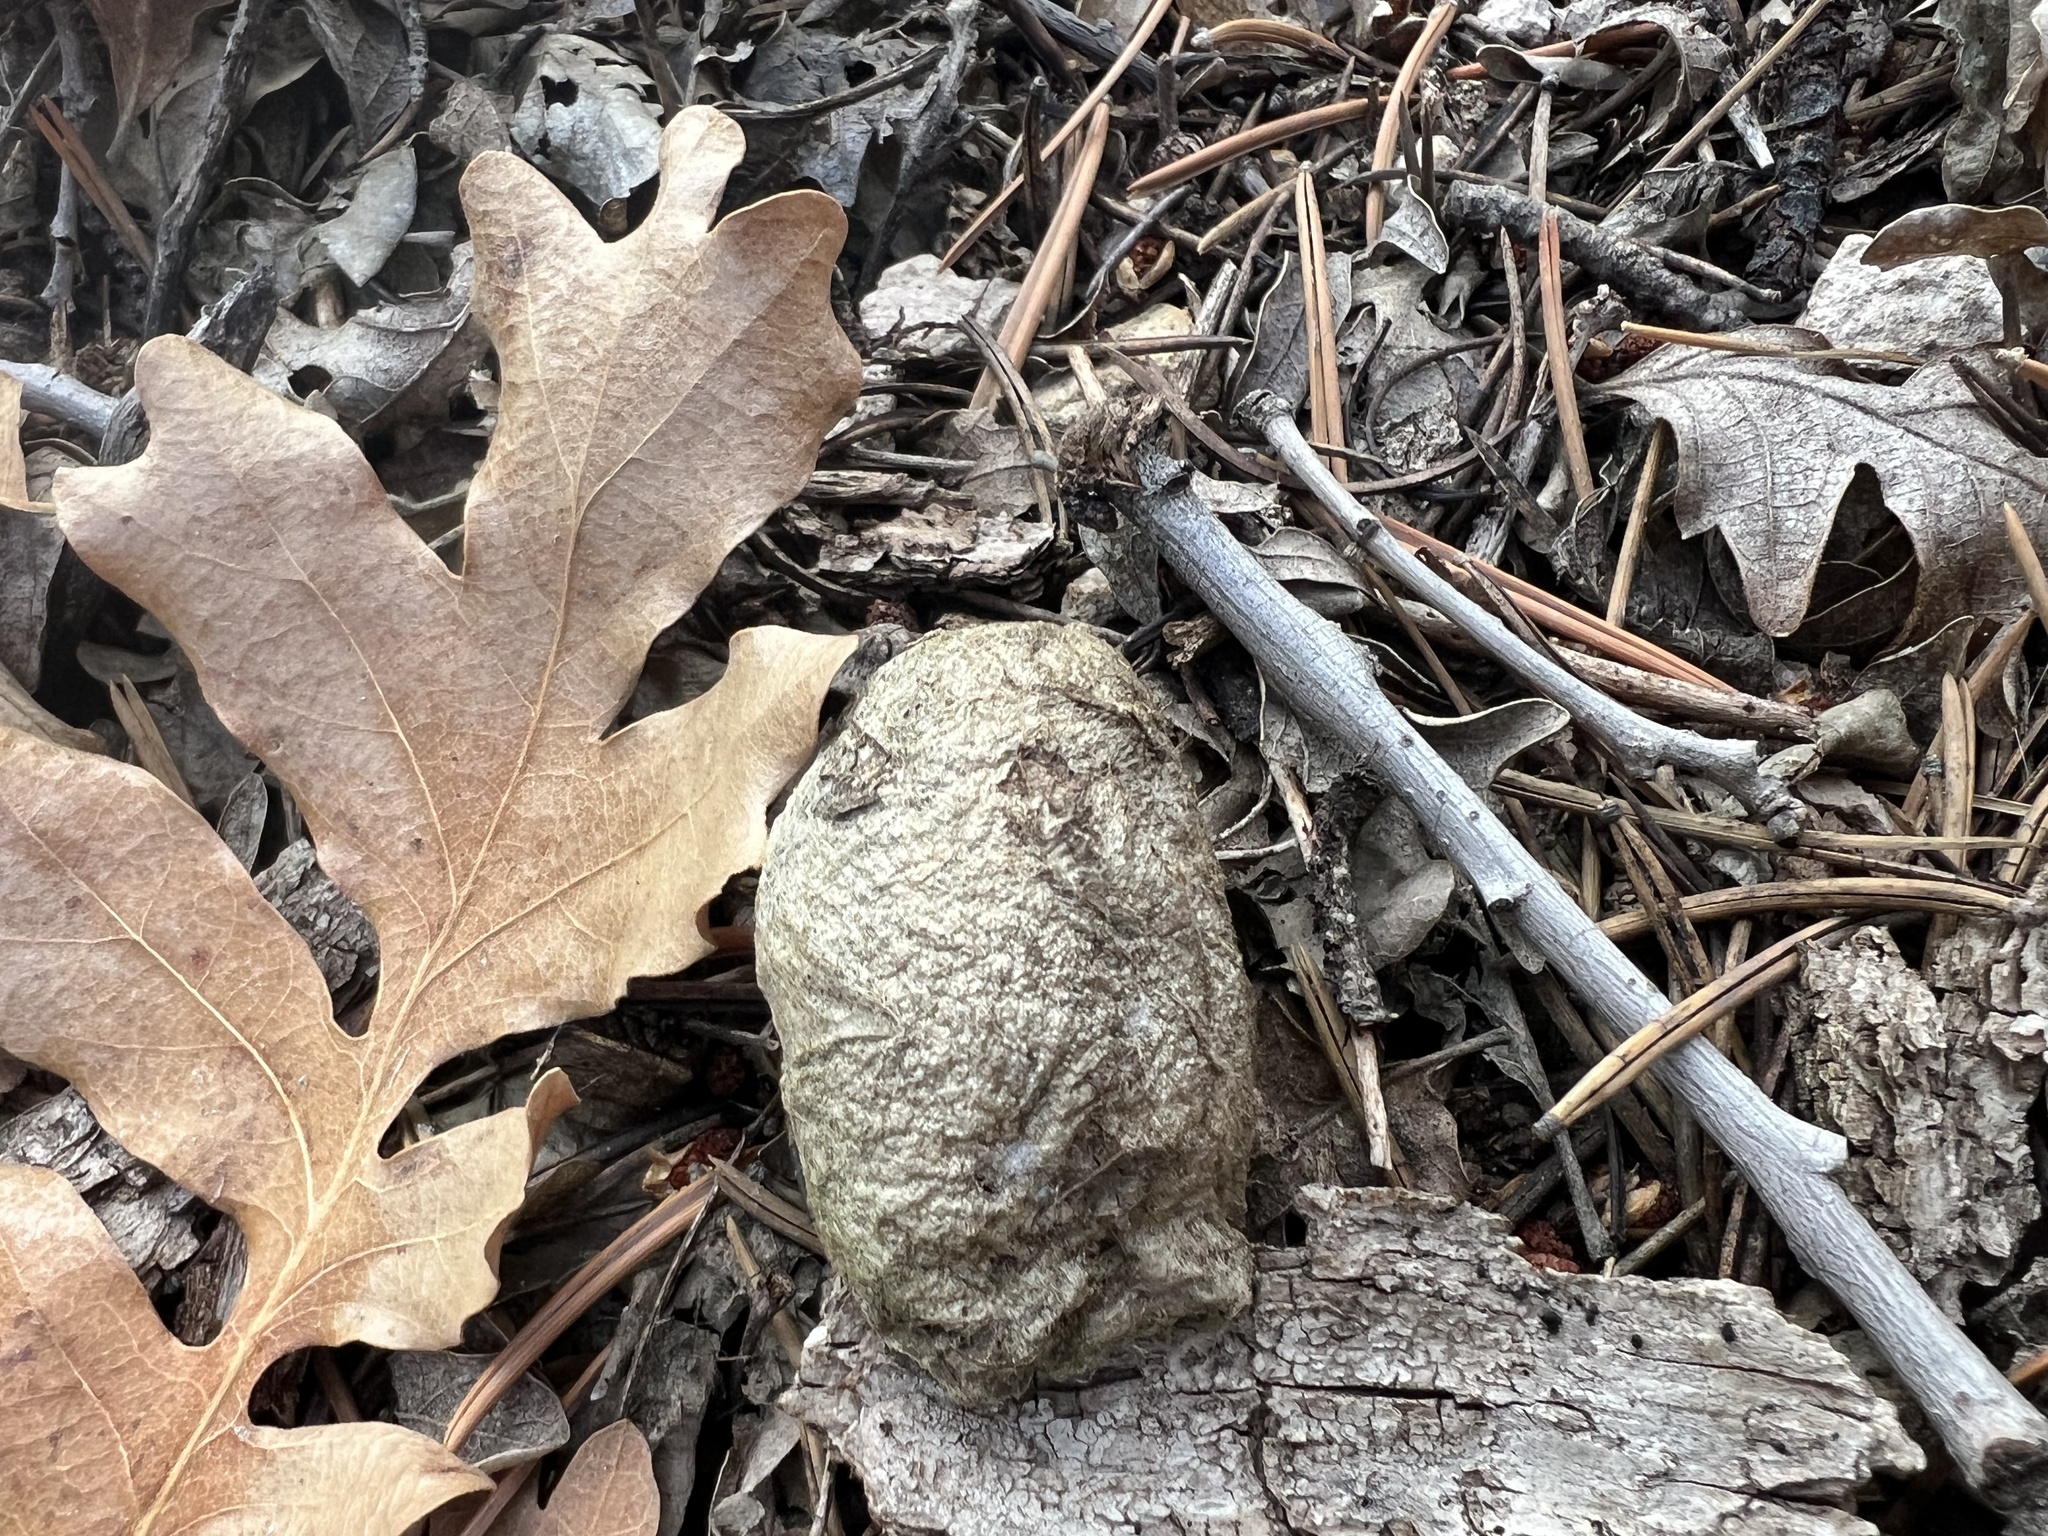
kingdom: Animalia
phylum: Arthropoda
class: Insecta
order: Lepidoptera
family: Saturniidae
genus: Antheraea
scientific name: Antheraea polyphemus
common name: Polyphemus moth
